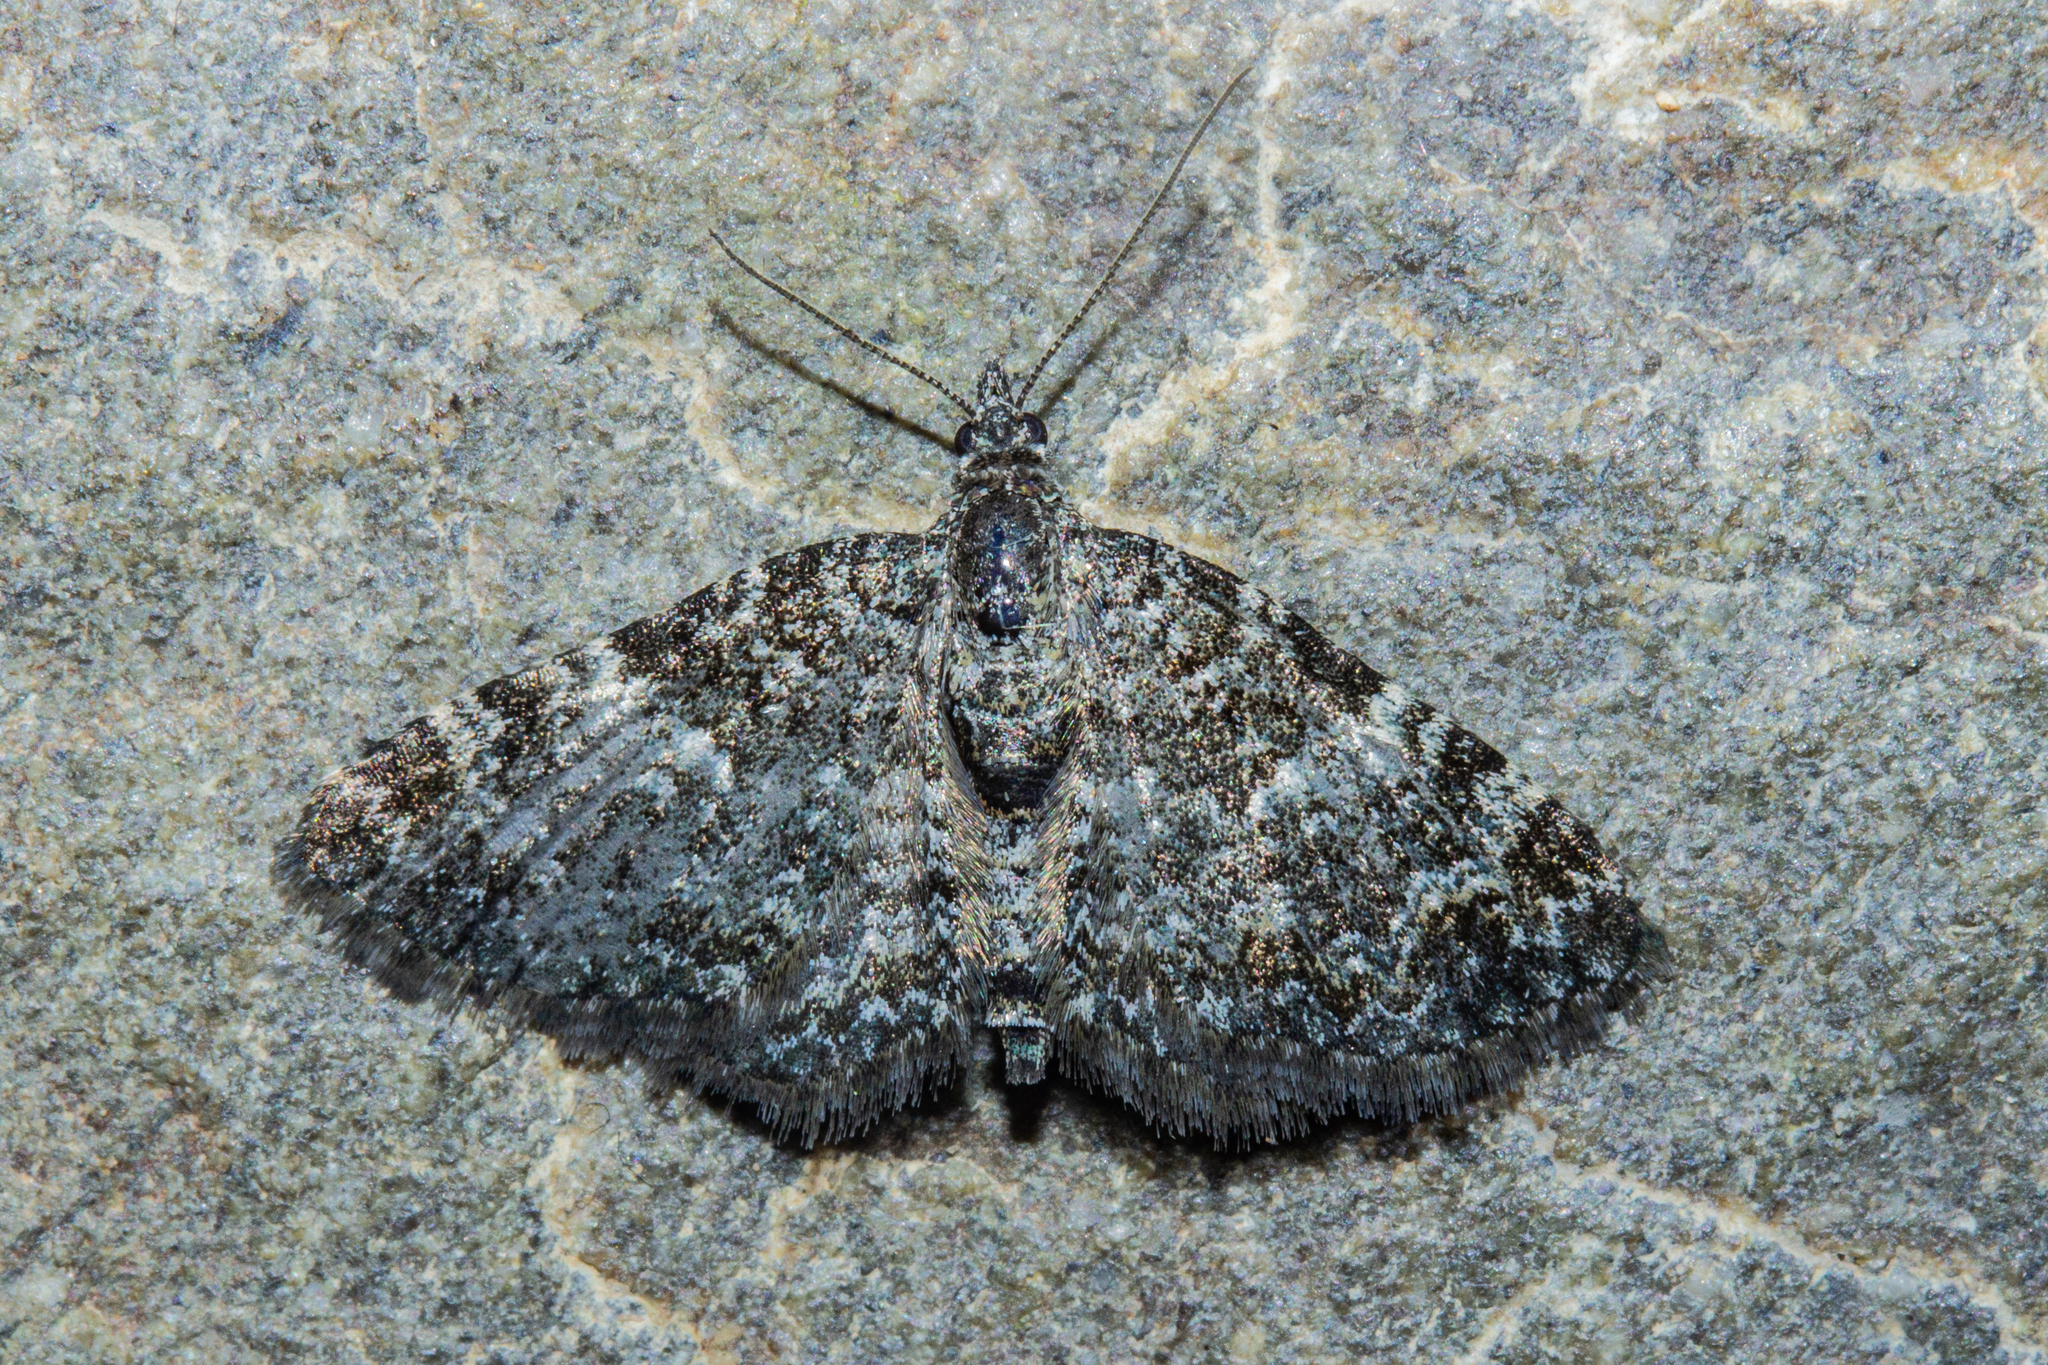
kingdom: Animalia
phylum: Arthropoda
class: Insecta
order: Lepidoptera
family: Geometridae
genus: Chloroclystis
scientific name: Chloroclystis nereis
